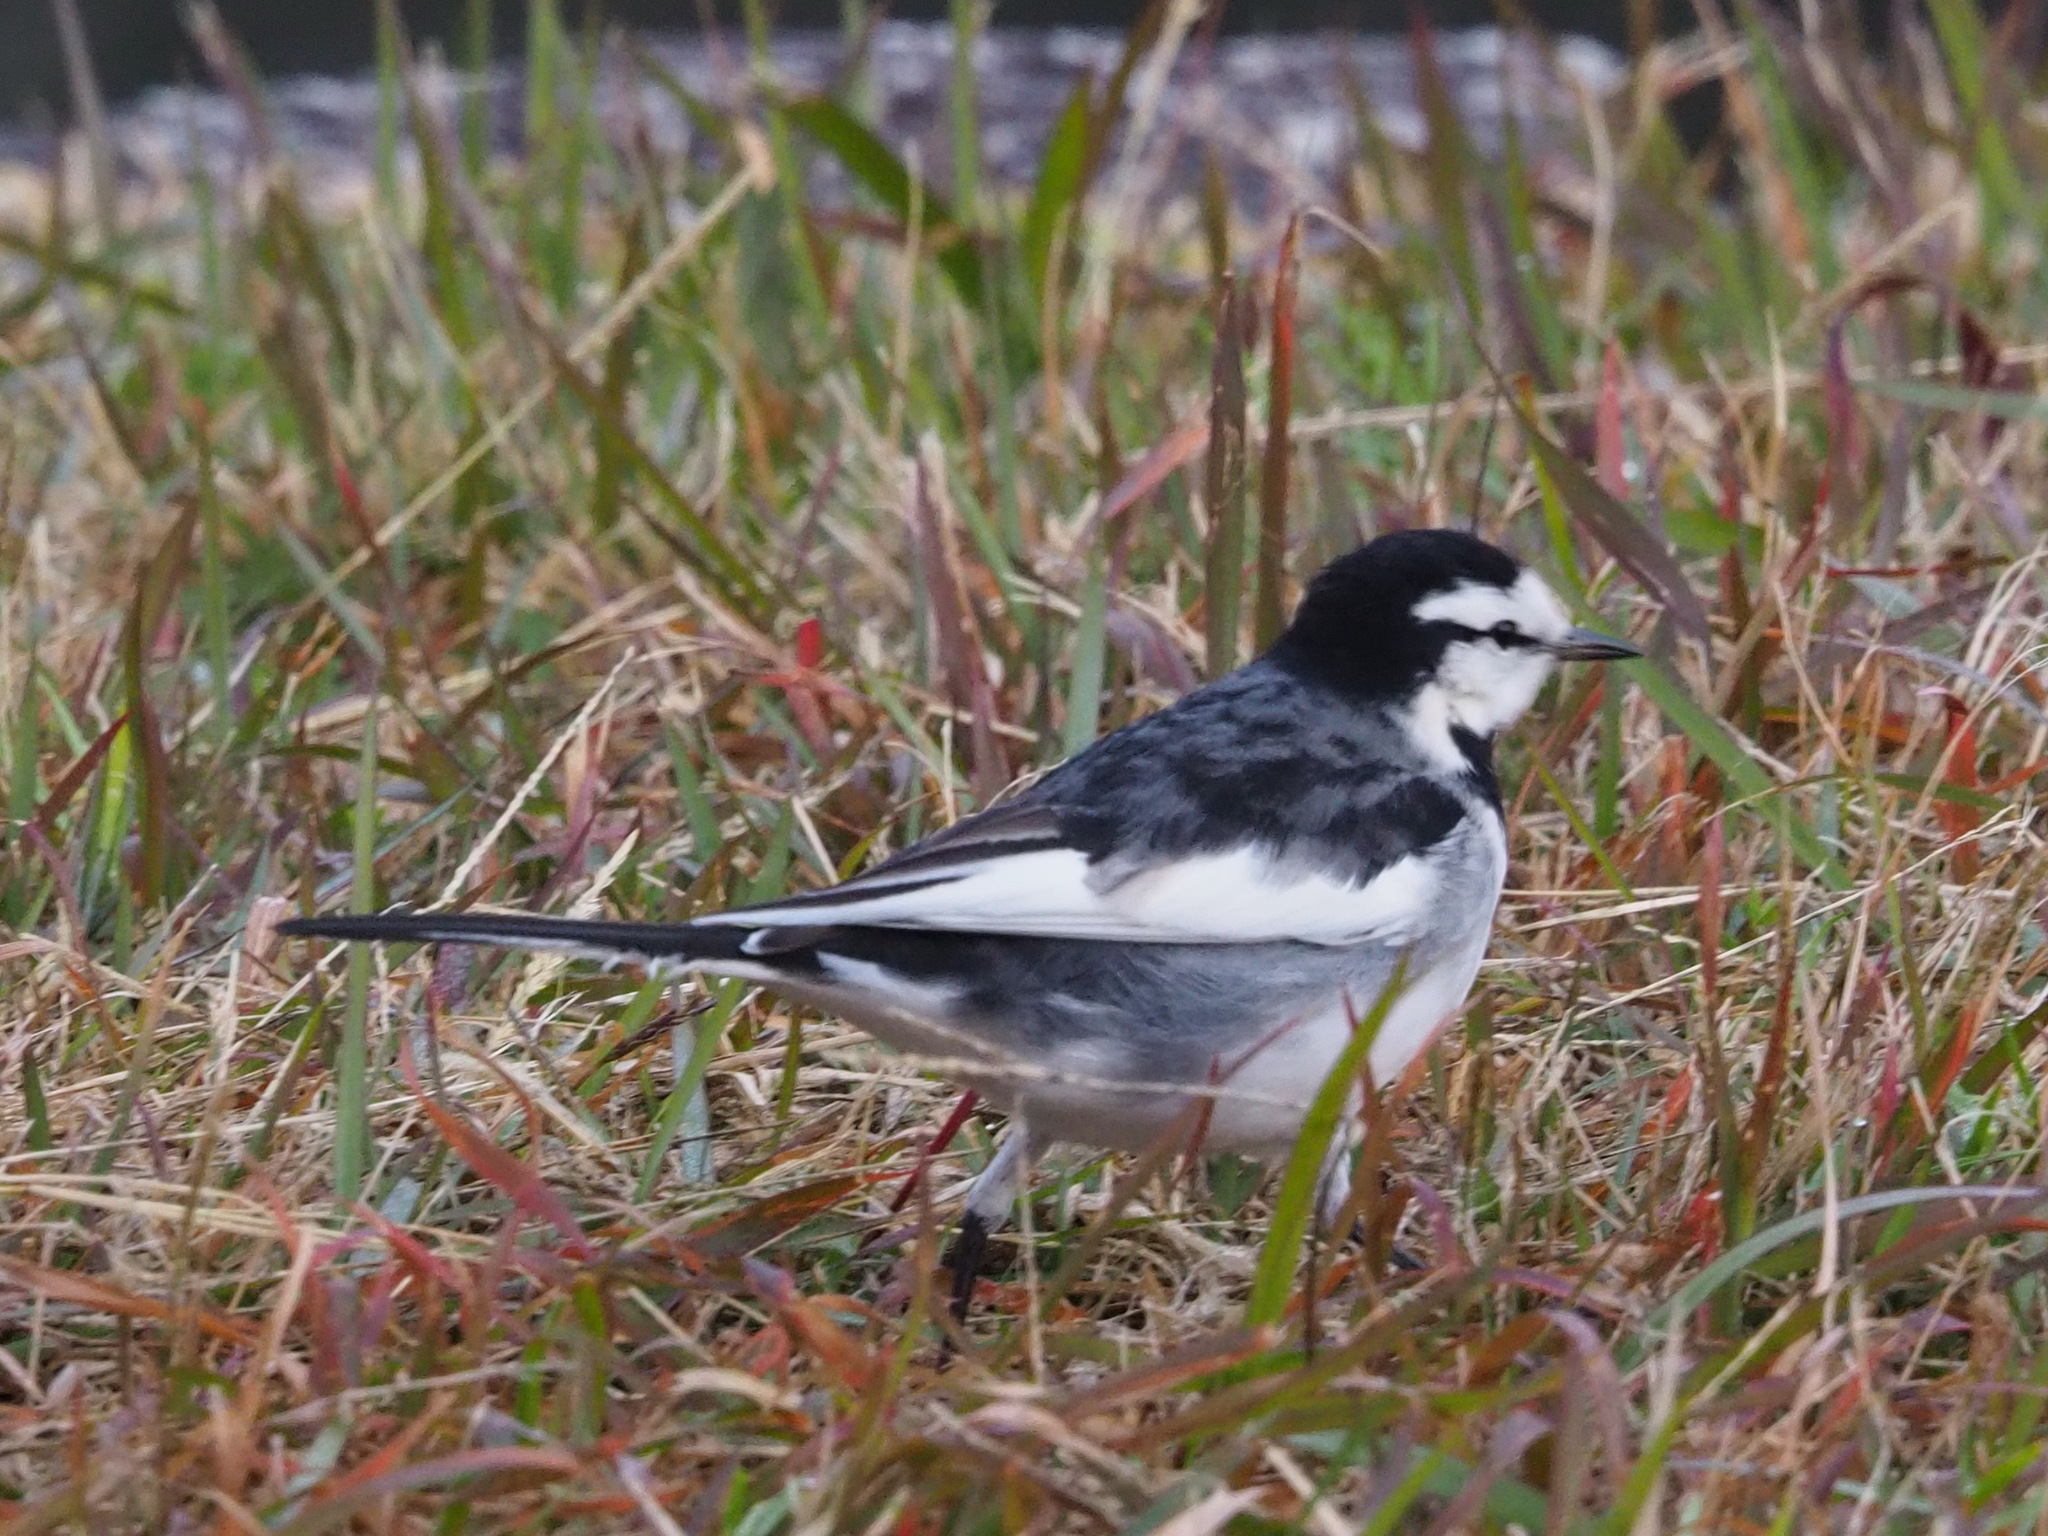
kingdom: Animalia
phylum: Chordata
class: Aves
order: Passeriformes
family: Motacillidae
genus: Motacilla
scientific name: Motacilla alba
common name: White wagtail
